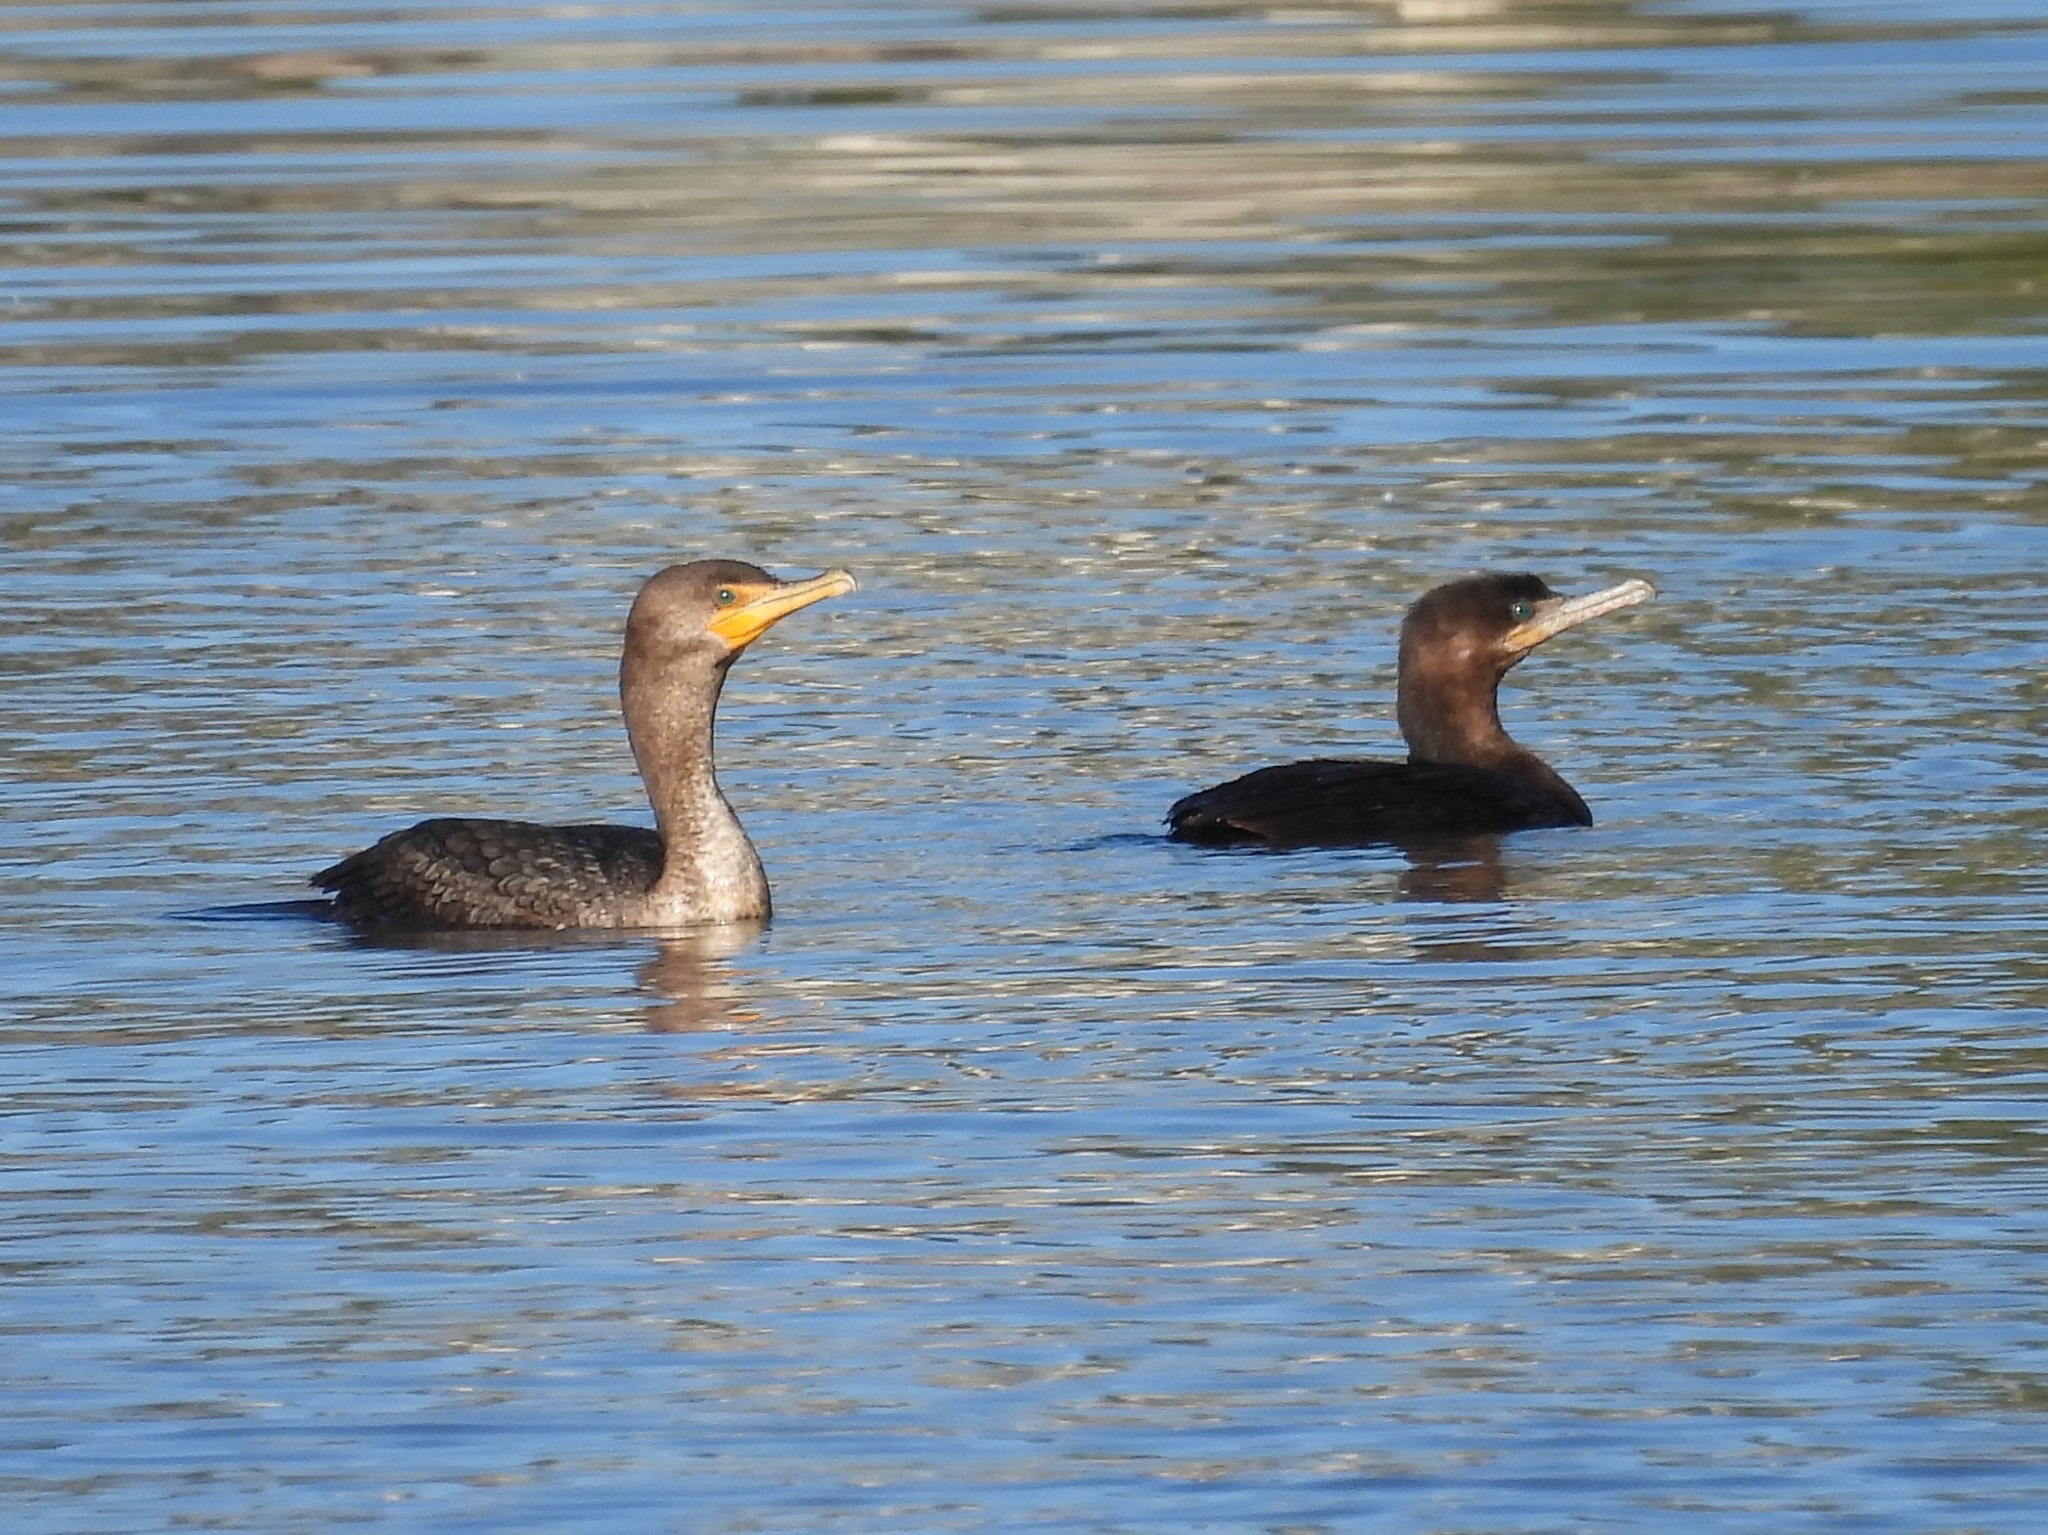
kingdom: Animalia
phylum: Chordata
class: Aves
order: Suliformes
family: Phalacrocoracidae
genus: Phalacrocorax
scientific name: Phalacrocorax auritus
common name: Double-crested cormorant
